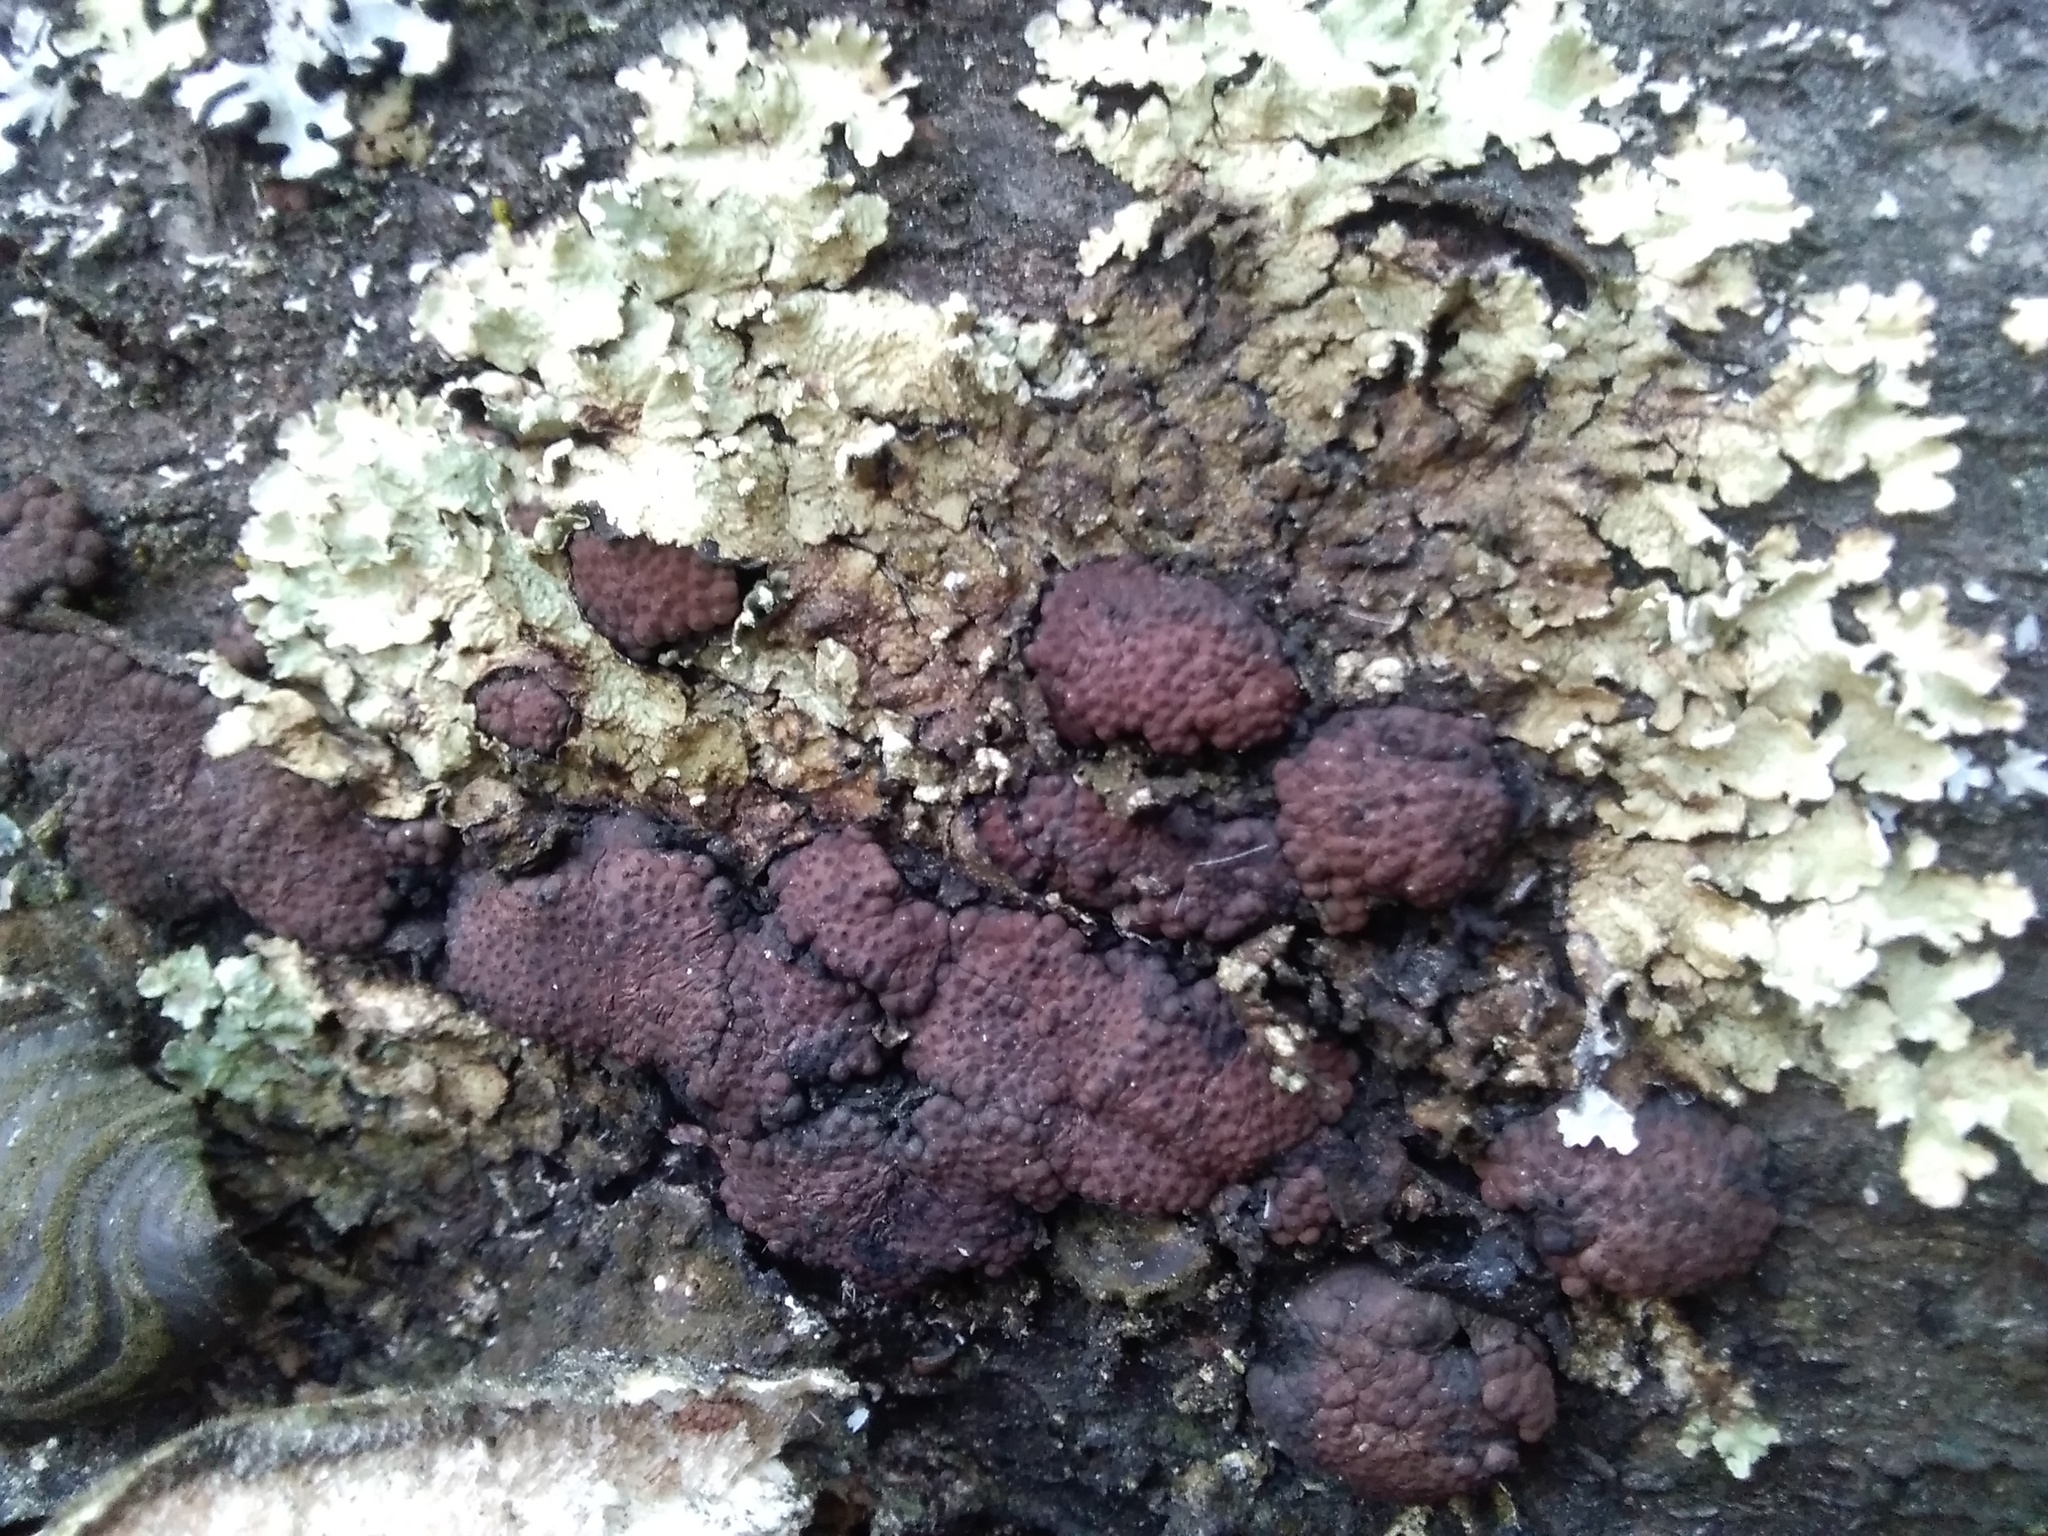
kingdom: Fungi
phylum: Ascomycota
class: Sordariomycetes
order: Xylariales
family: Hypoxylaceae
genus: Jackrogersella
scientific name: Jackrogersella multiformis
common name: Birch woodwart
